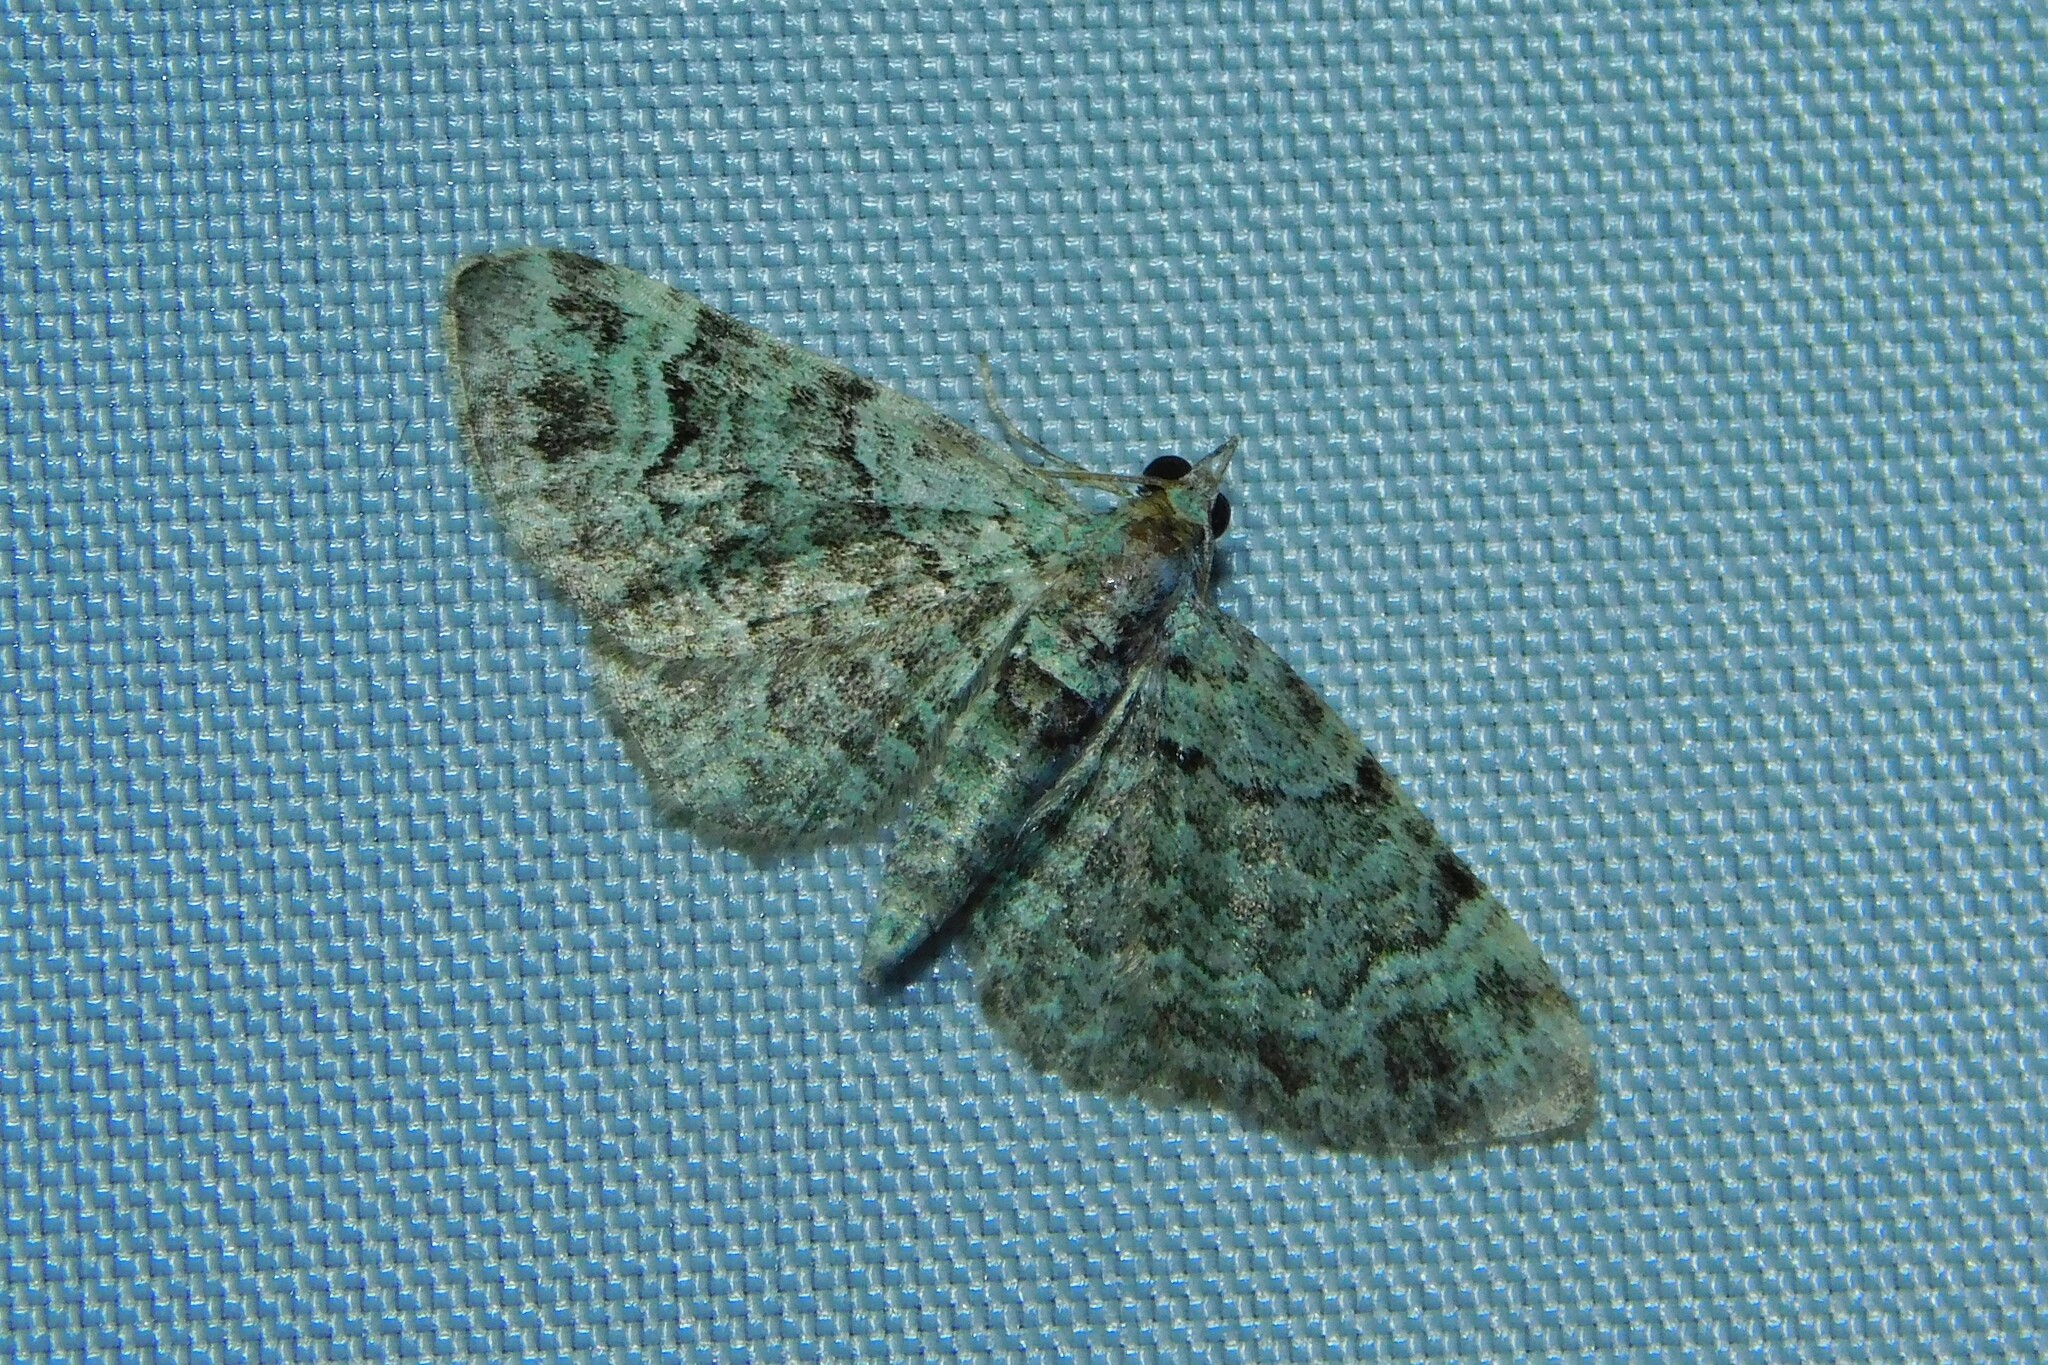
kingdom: Animalia
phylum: Arthropoda
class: Insecta
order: Lepidoptera
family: Geometridae
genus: Pasiphila
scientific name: Pasiphila rectangulata
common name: Green pug
